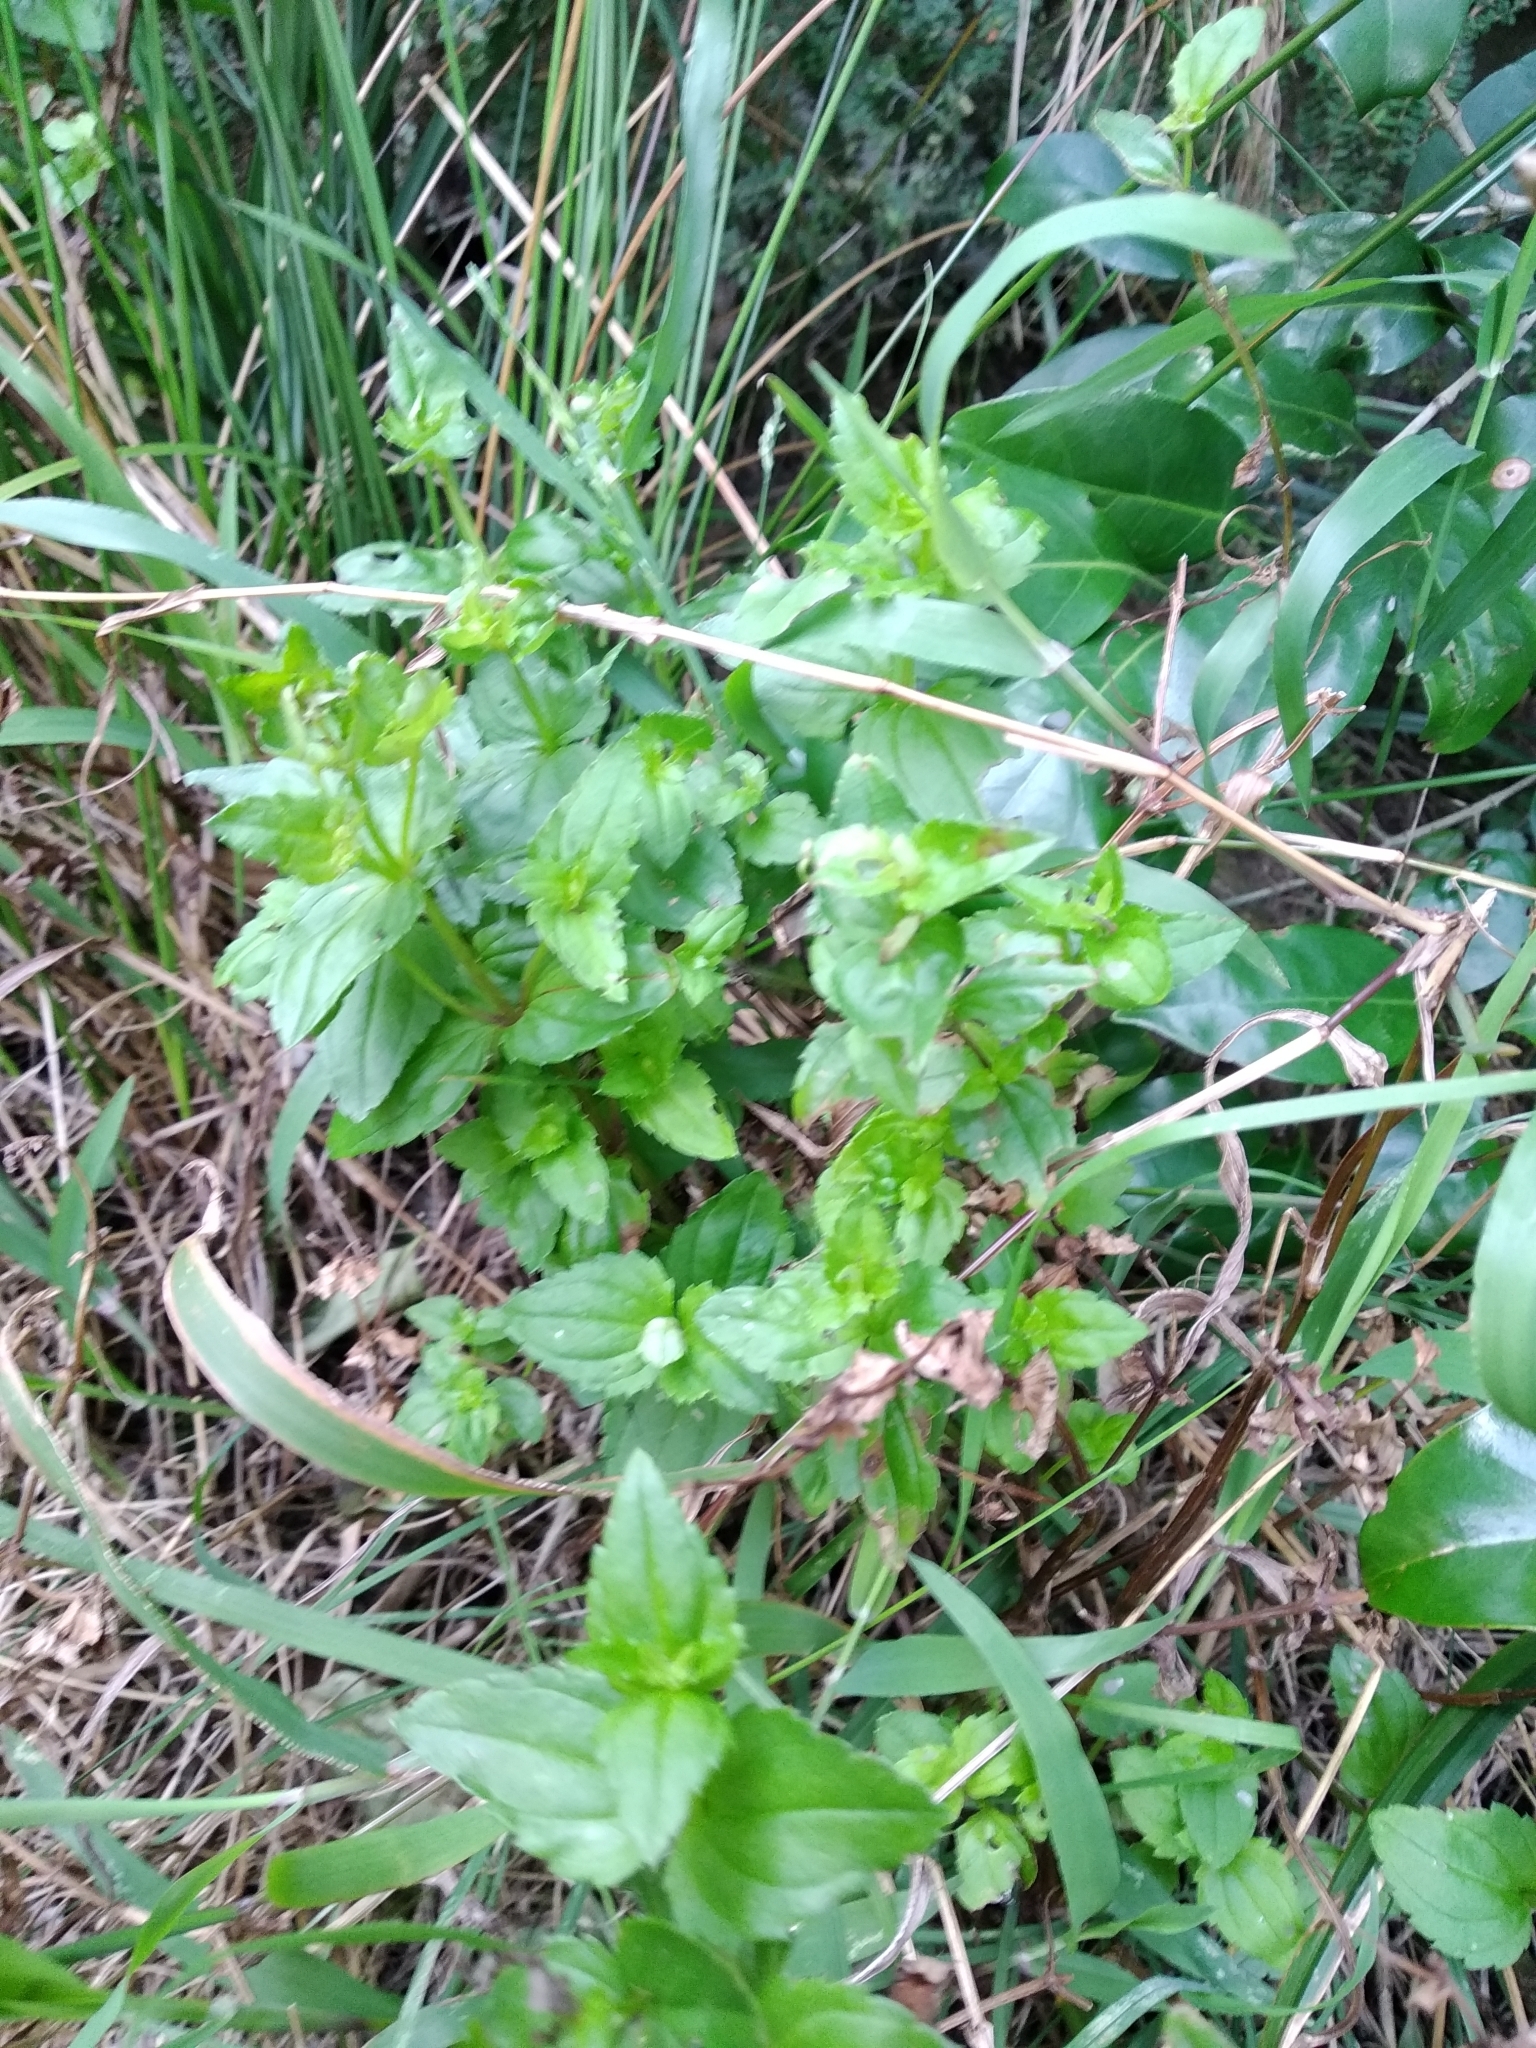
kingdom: Plantae
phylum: Tracheophyta
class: Magnoliopsida
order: Lamiales
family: Scrophulariaceae
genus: Nemesia
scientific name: Nemesia macrocarpa
